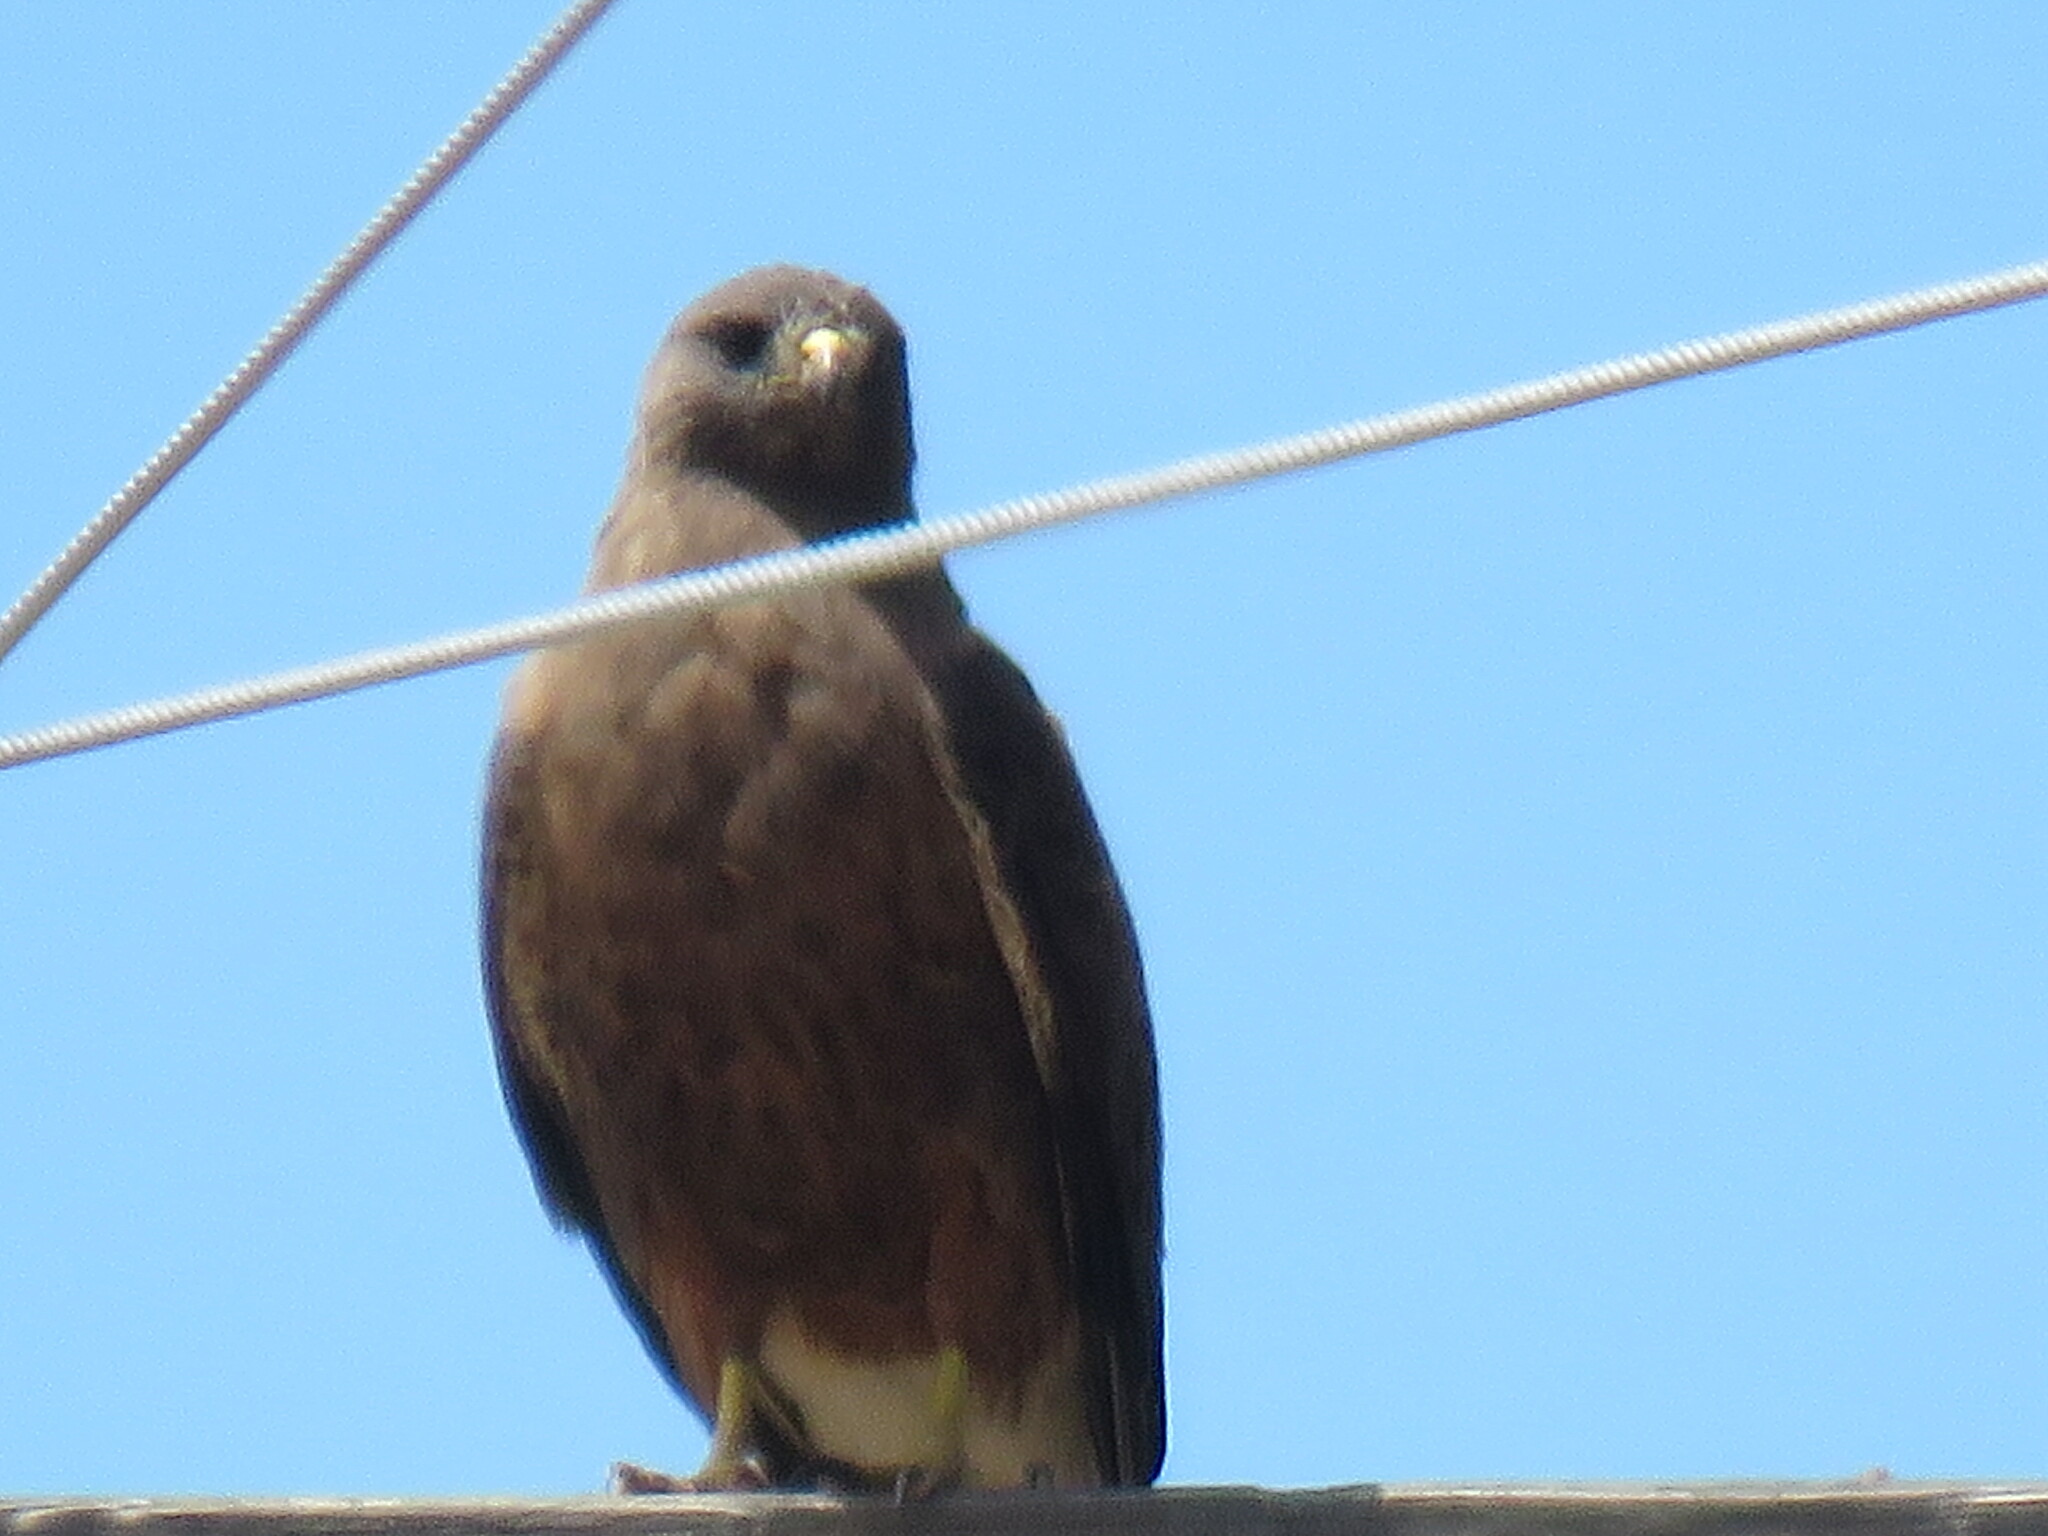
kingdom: Animalia
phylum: Chordata
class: Aves
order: Accipitriformes
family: Accipitridae
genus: Buteo
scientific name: Buteo swainsoni
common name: Swainson's hawk
